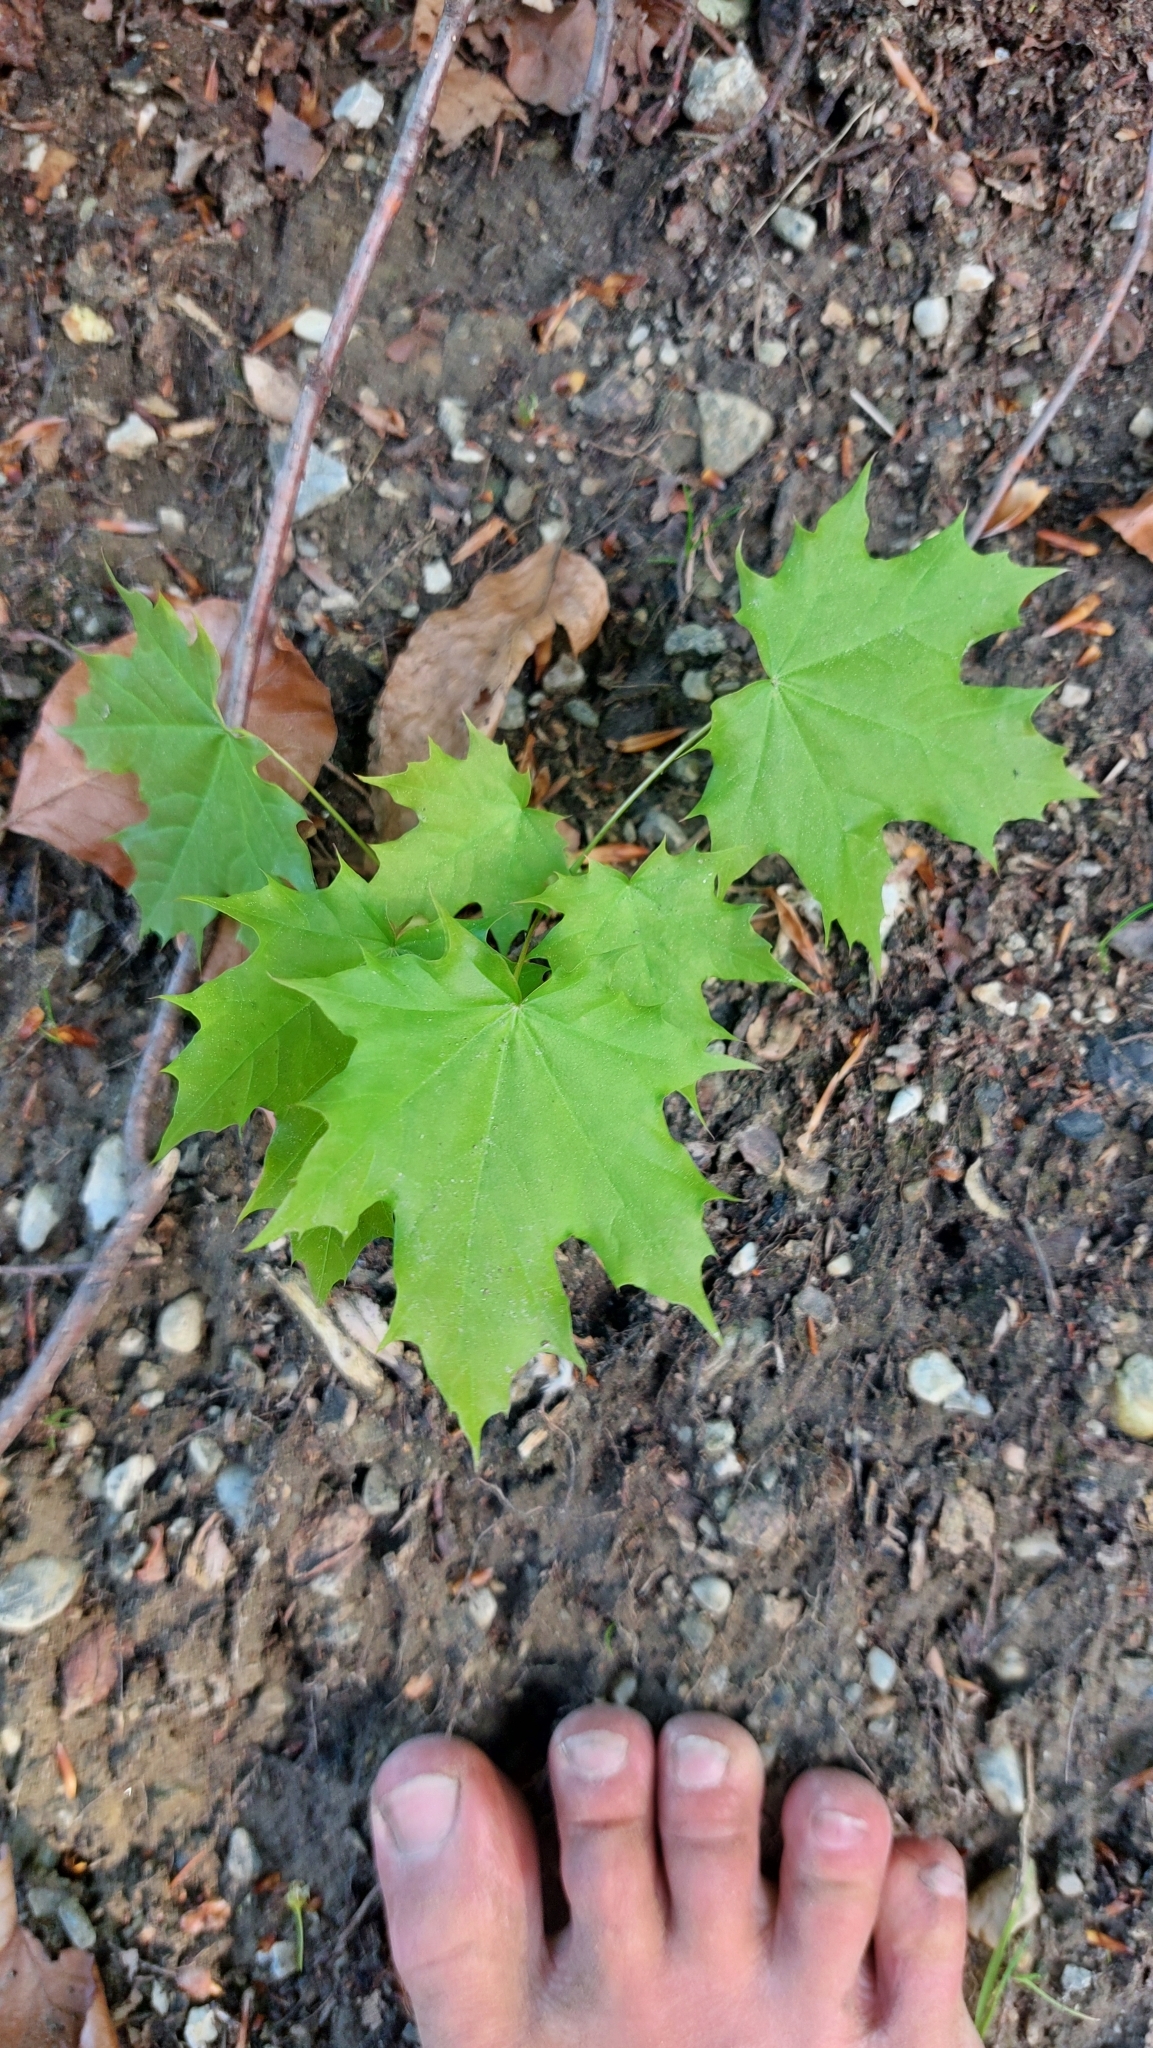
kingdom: Plantae
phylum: Tracheophyta
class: Magnoliopsida
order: Sapindales
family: Sapindaceae
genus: Acer
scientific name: Acer platanoides
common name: Norway maple
